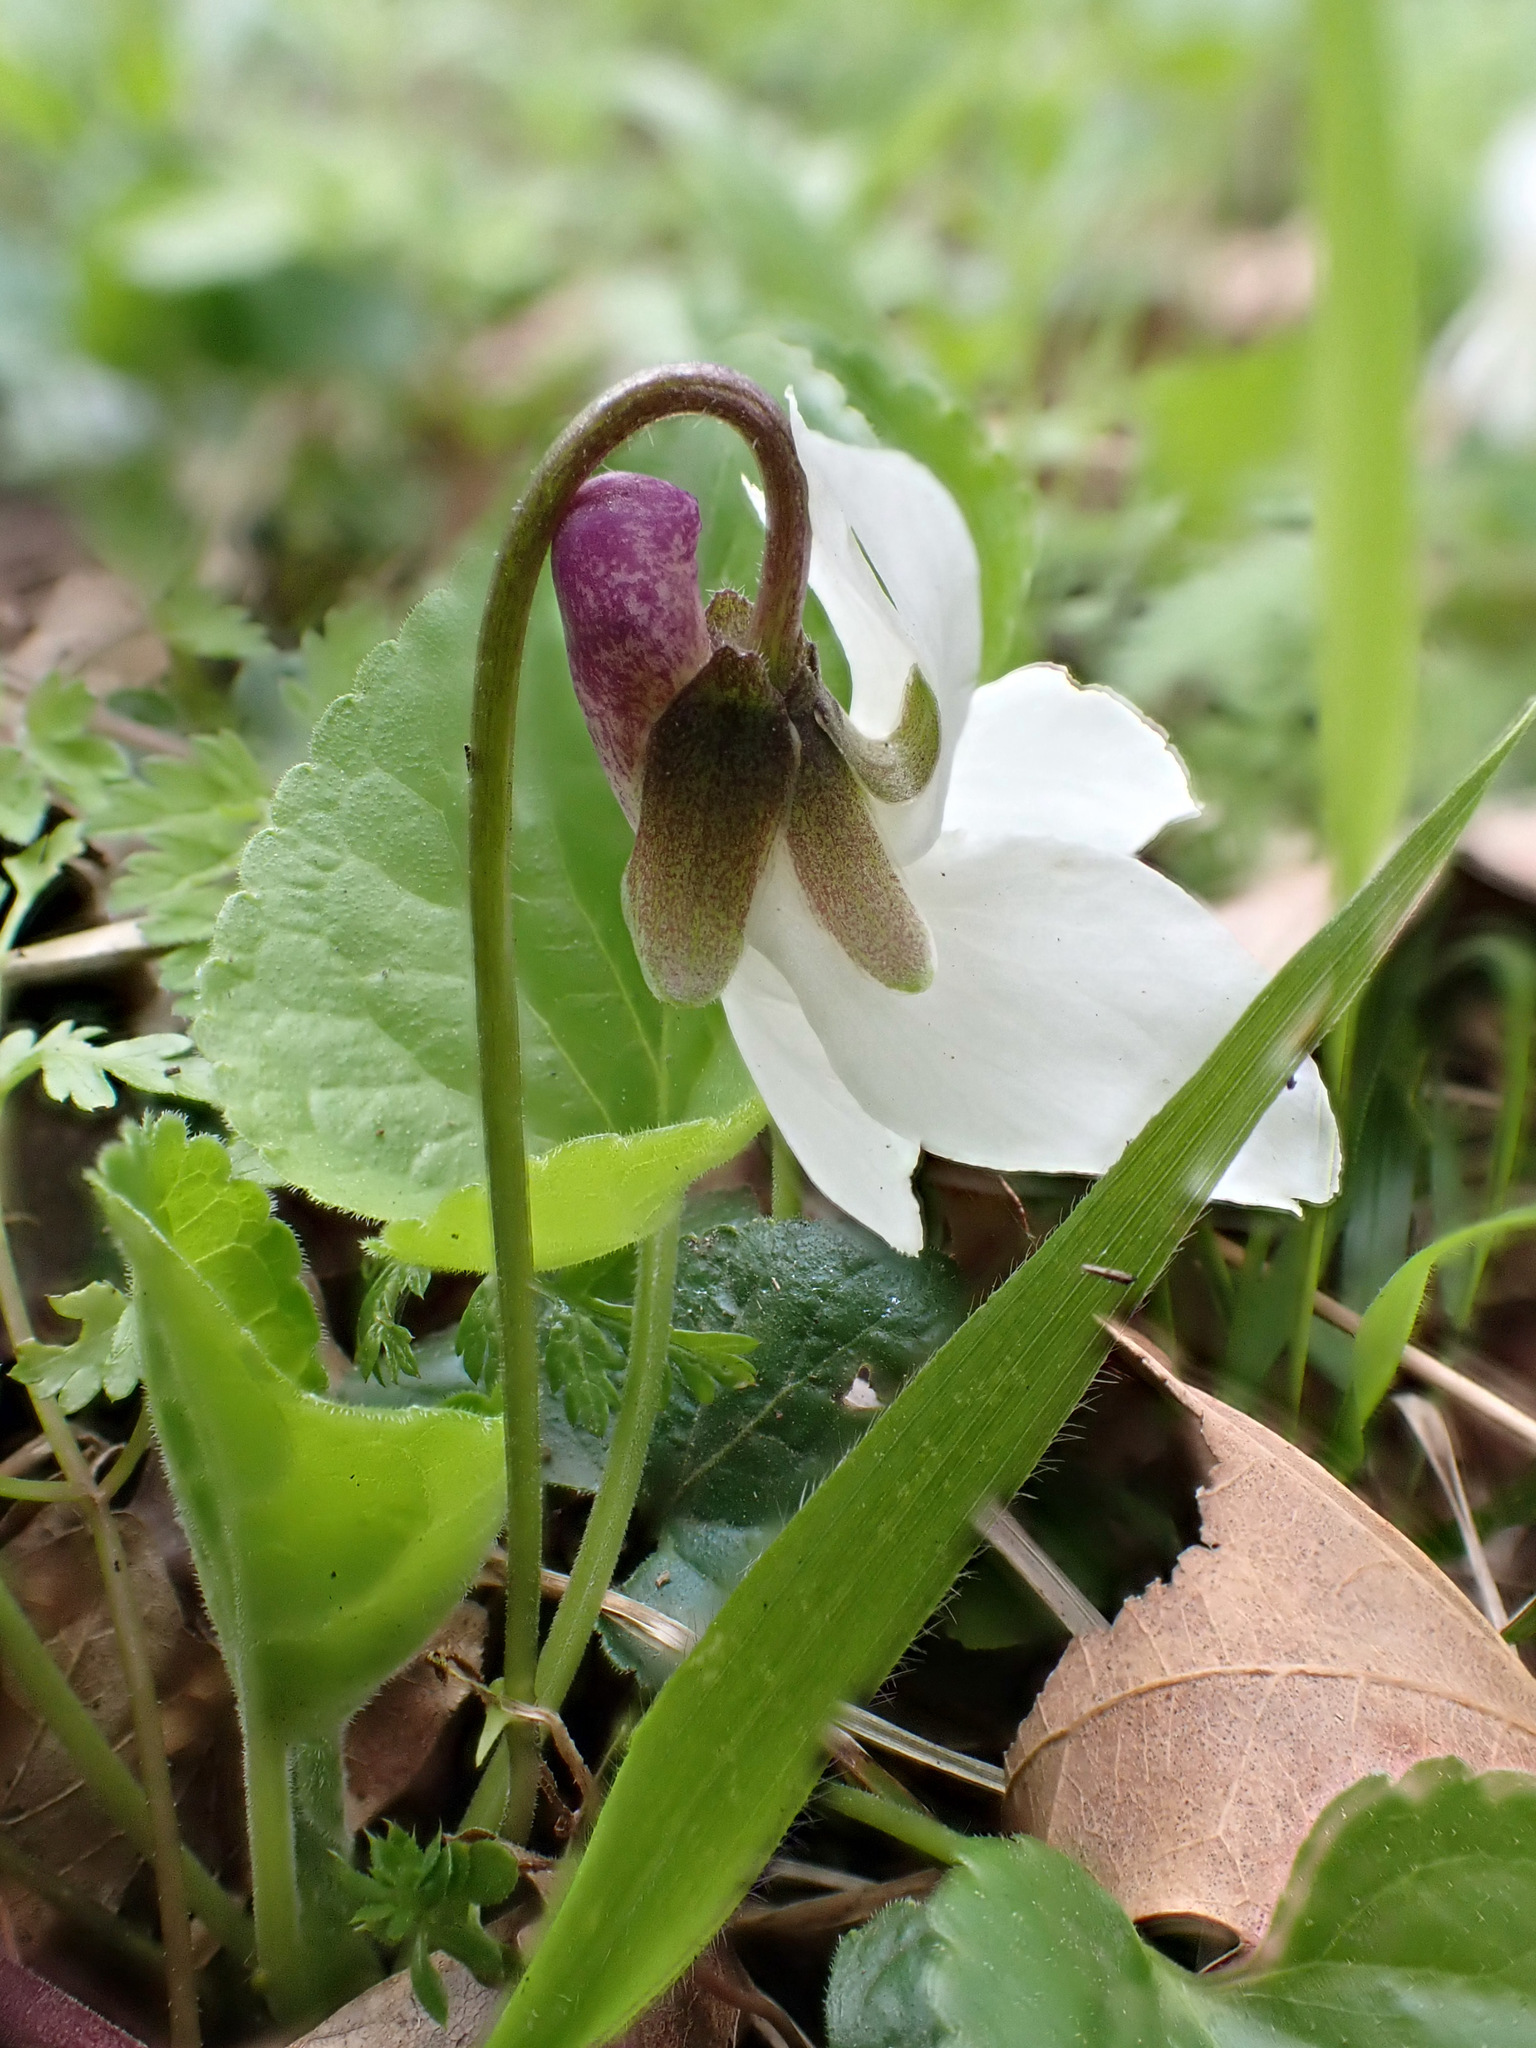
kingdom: Plantae
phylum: Tracheophyta
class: Magnoliopsida
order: Malpighiales
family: Violaceae
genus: Viola
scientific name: Viola odorata
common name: Sweet violet
